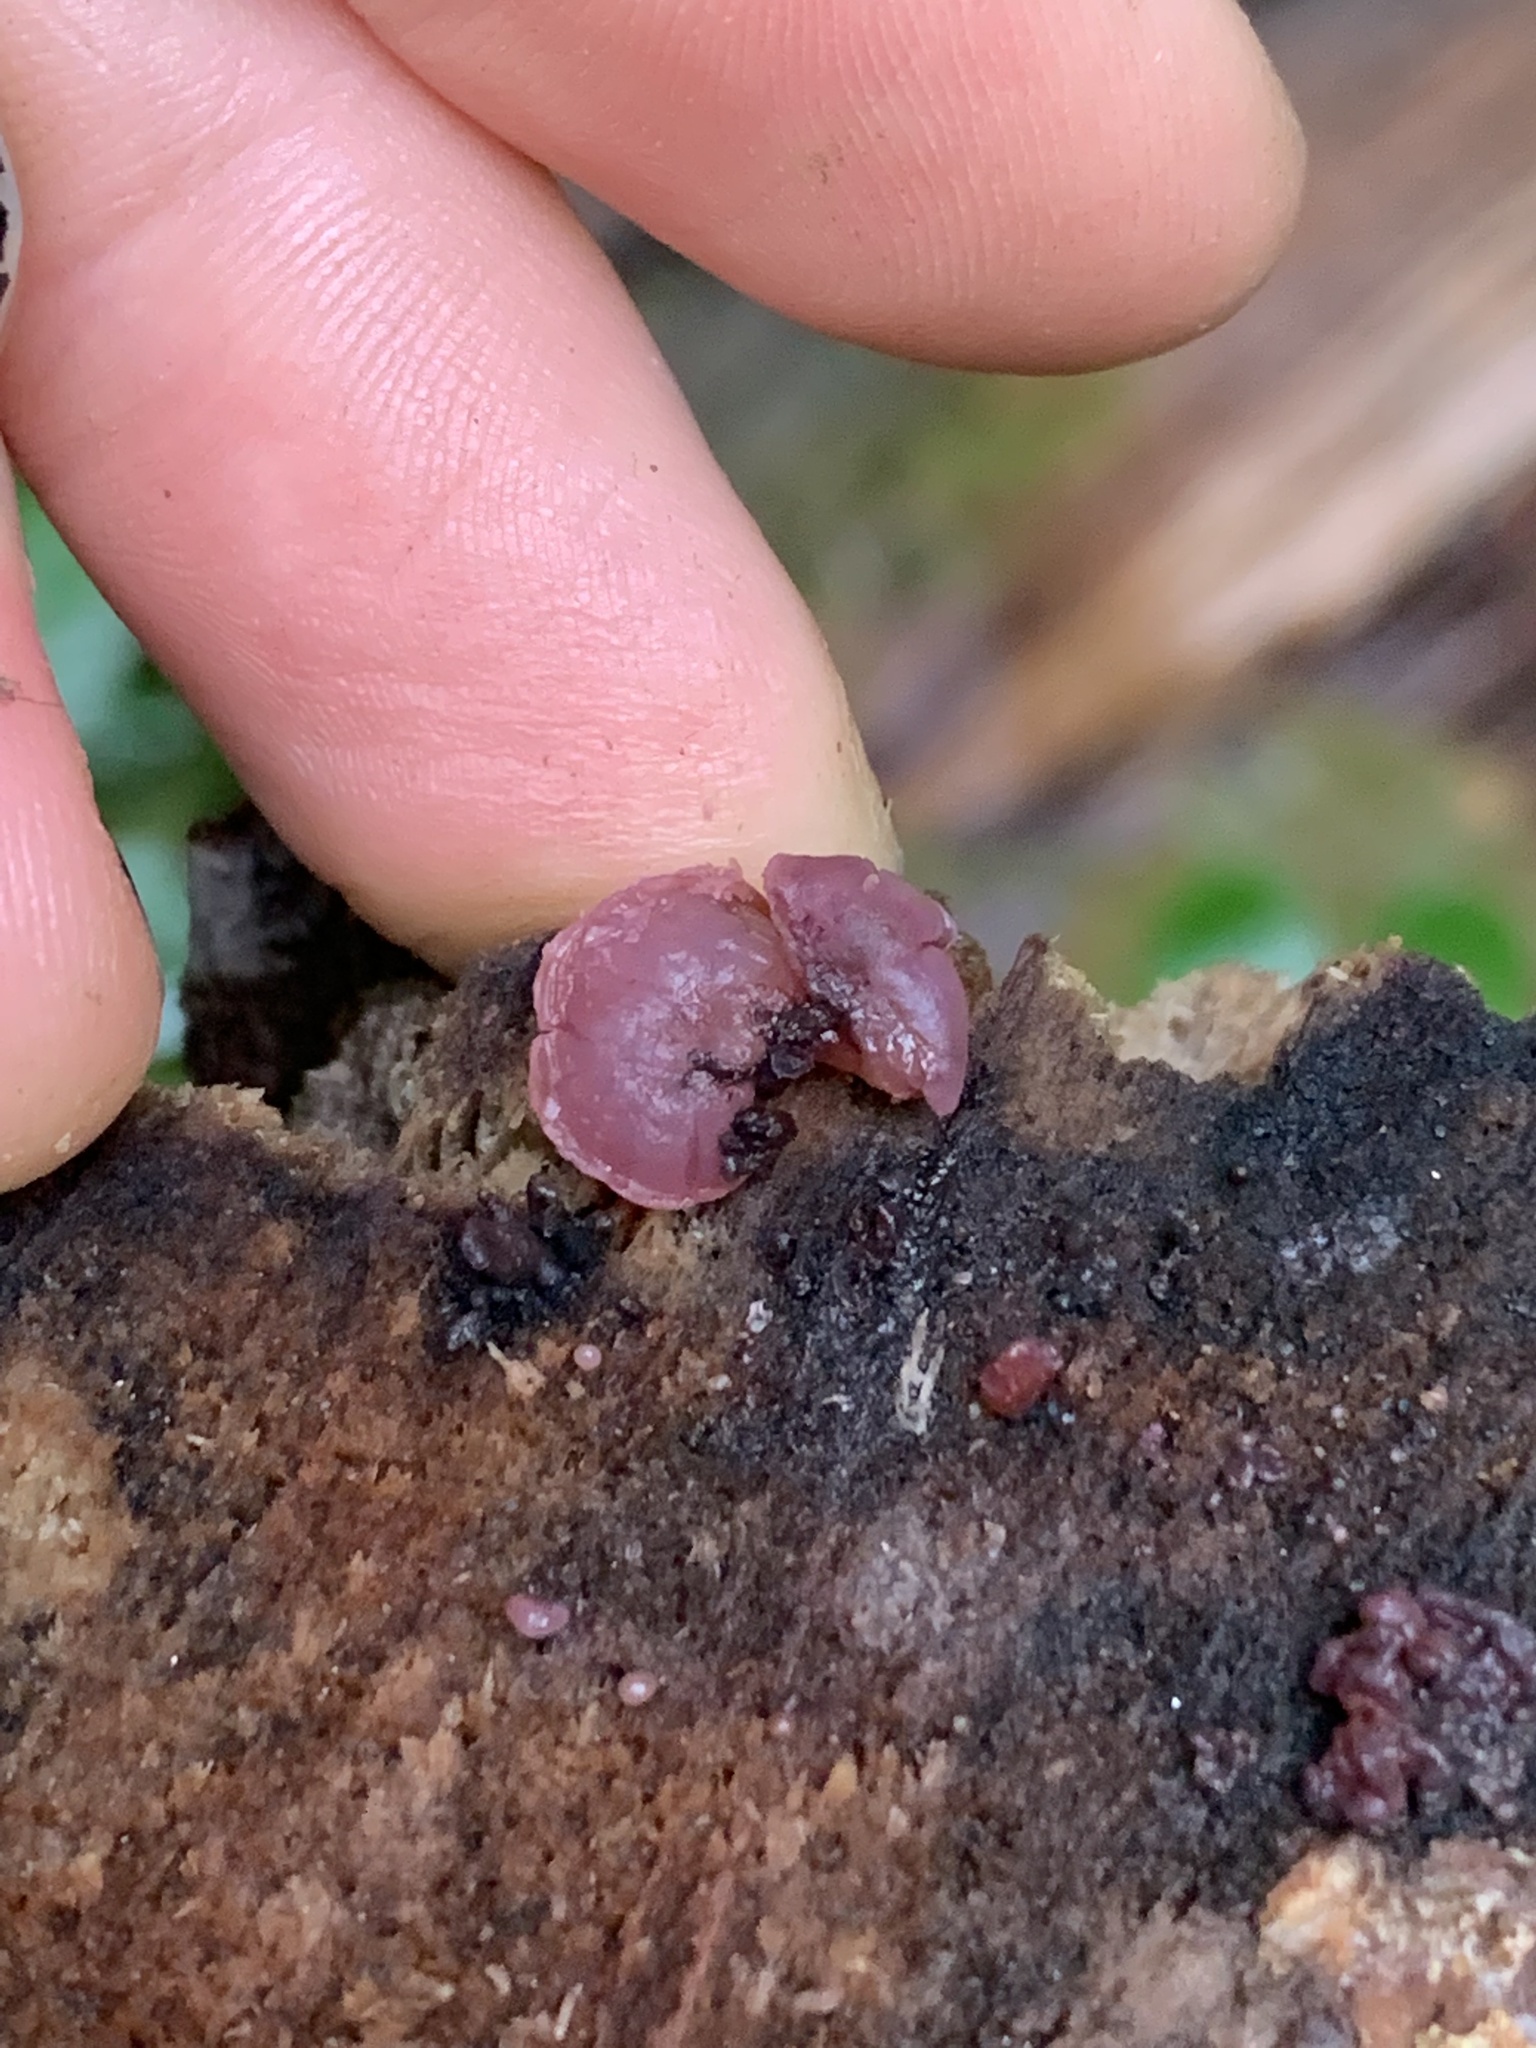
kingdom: Fungi
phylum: Ascomycota
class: Leotiomycetes
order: Helotiales
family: Gelatinodiscaceae
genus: Ascocoryne
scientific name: Ascocoryne sarcoides
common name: Purple jellydisc
